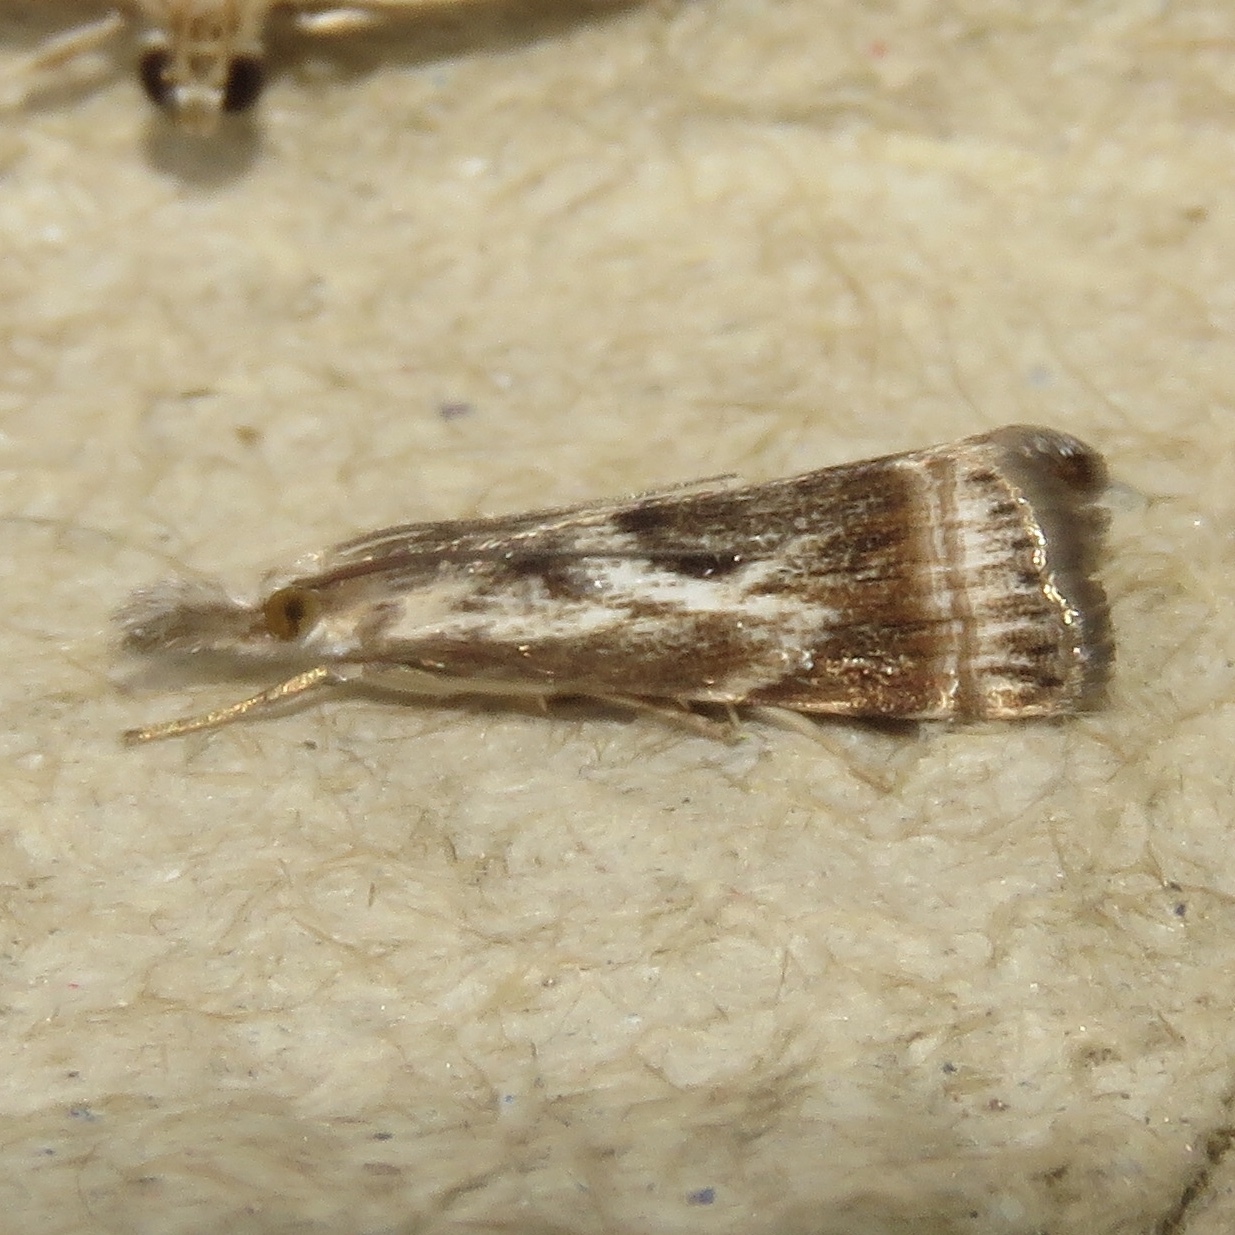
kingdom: Animalia
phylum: Arthropoda
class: Insecta
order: Lepidoptera
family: Crambidae
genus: Microcrambus
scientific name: Microcrambus elegans
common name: Elegant grass-veneer
